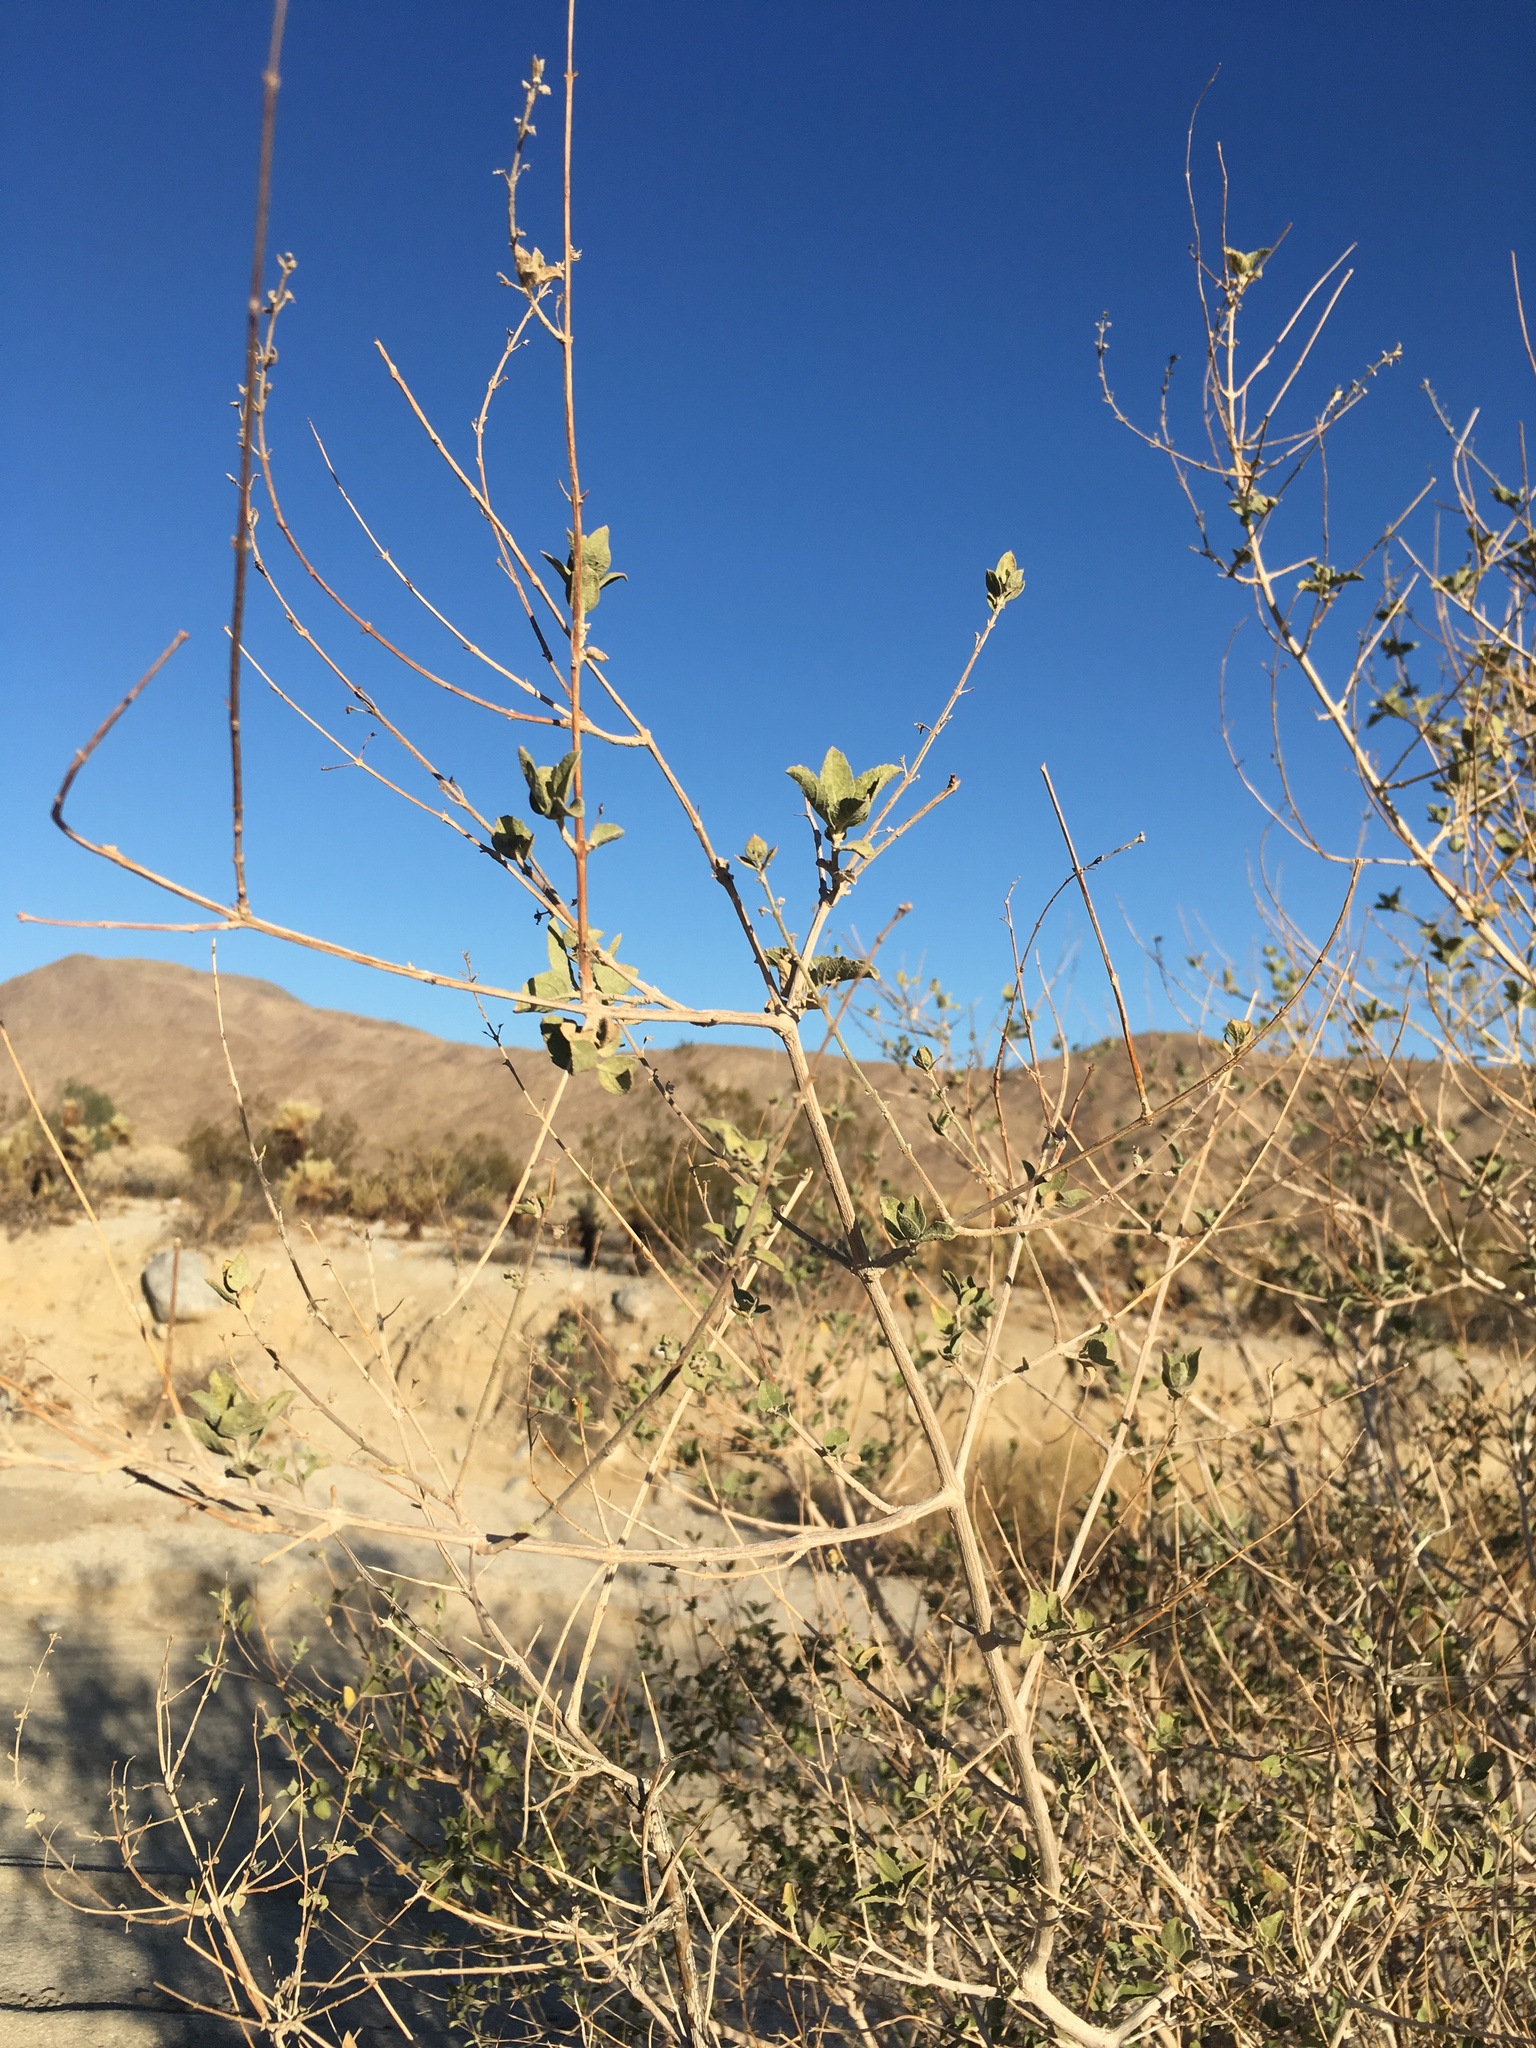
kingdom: Plantae
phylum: Tracheophyta
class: Magnoliopsida
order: Lamiales
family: Lamiaceae
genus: Condea
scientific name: Condea emoryi
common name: Chia
